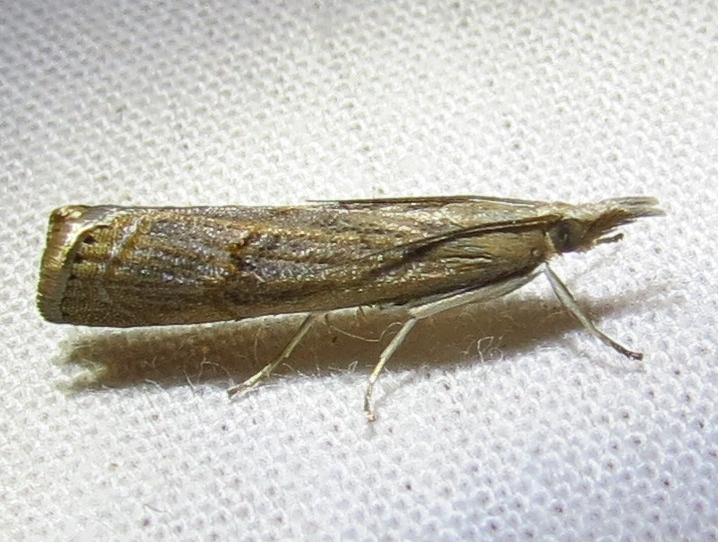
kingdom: Animalia
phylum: Arthropoda
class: Insecta
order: Lepidoptera
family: Crambidae
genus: Parapediasia
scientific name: Parapediasia decorellus
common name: Graceful grass-veneer
